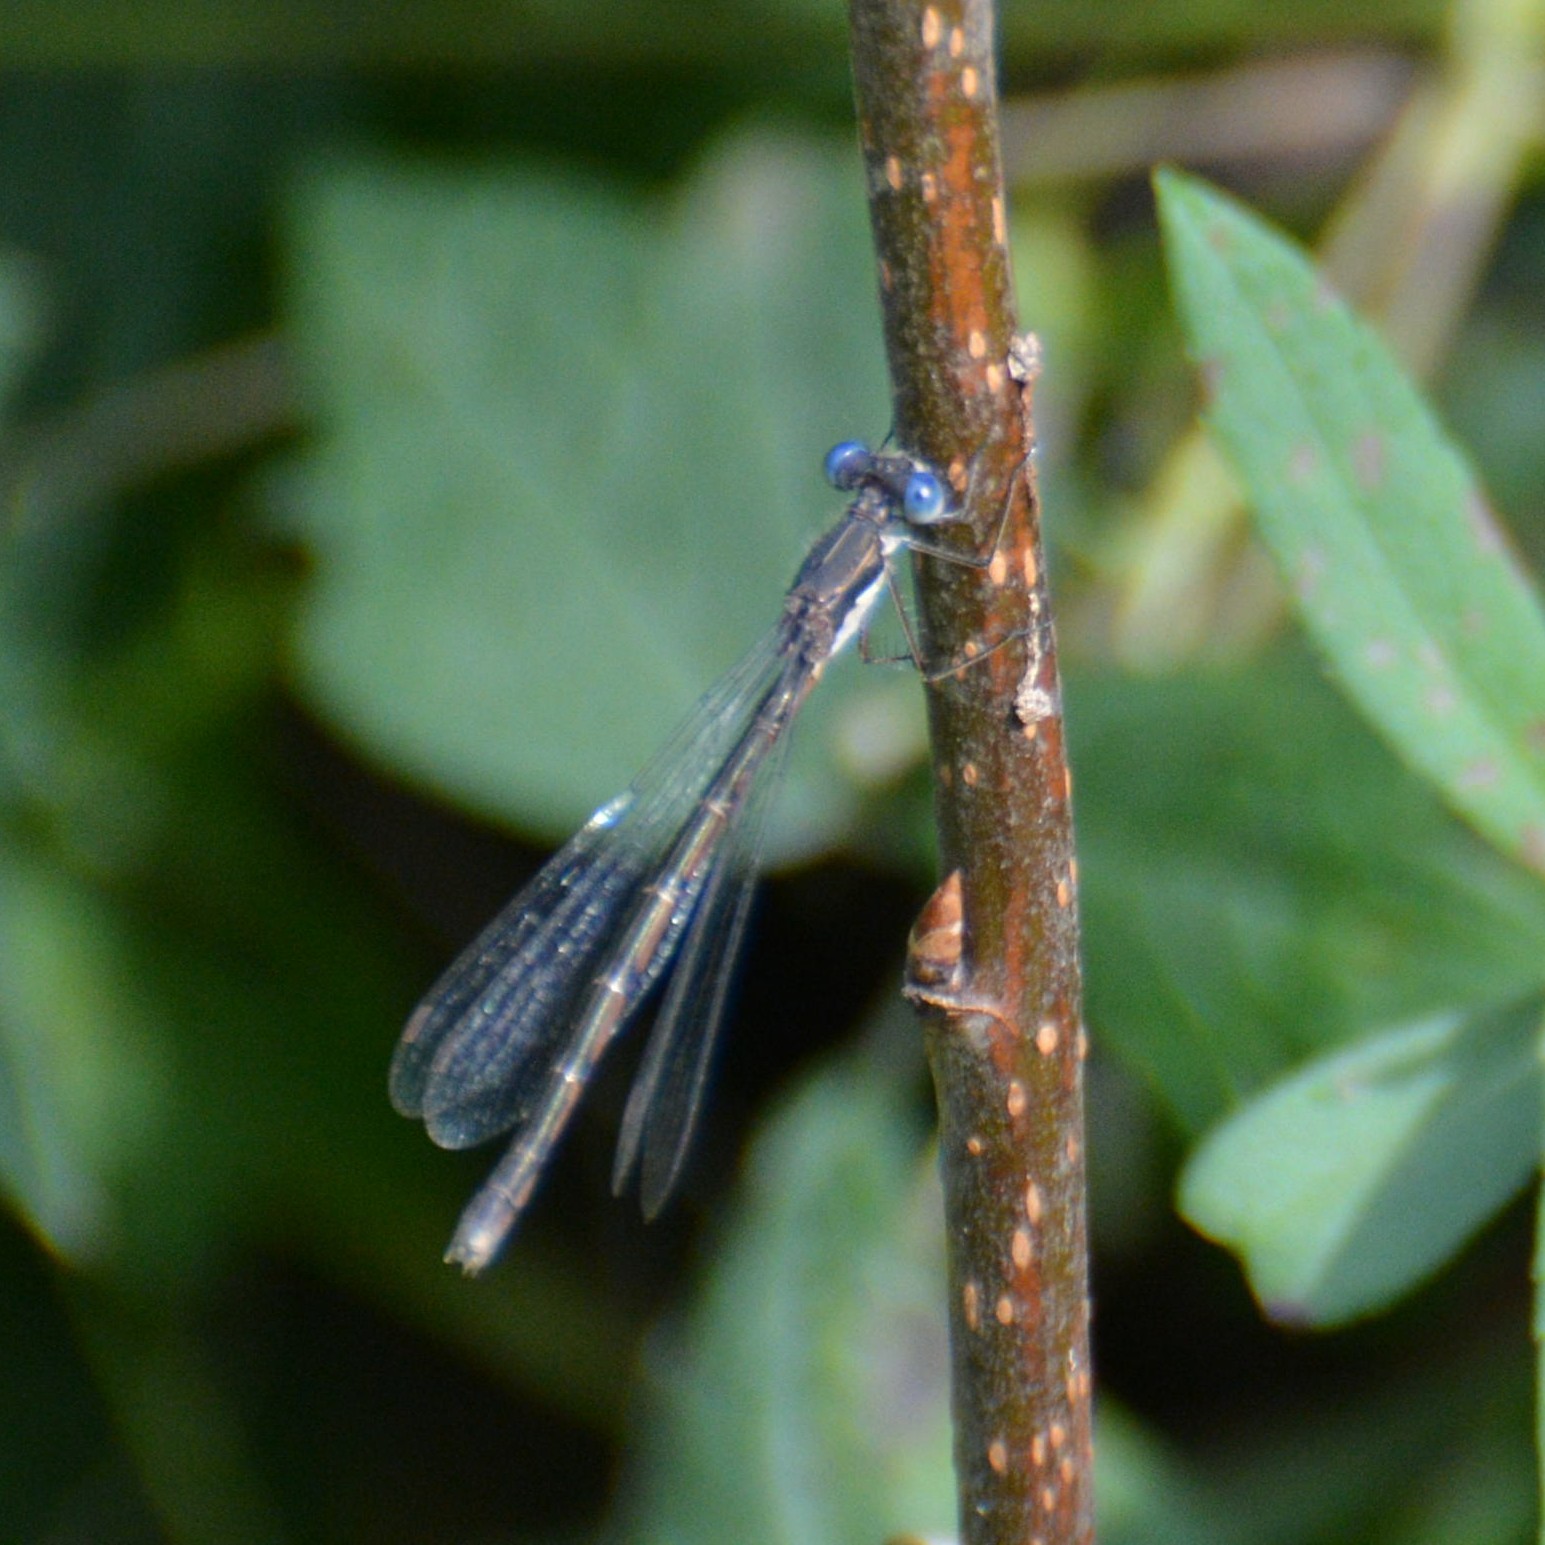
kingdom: Animalia
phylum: Arthropoda
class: Insecta
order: Odonata
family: Lestidae
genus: Lestes
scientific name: Lestes congener
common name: Spotted spreadwing
